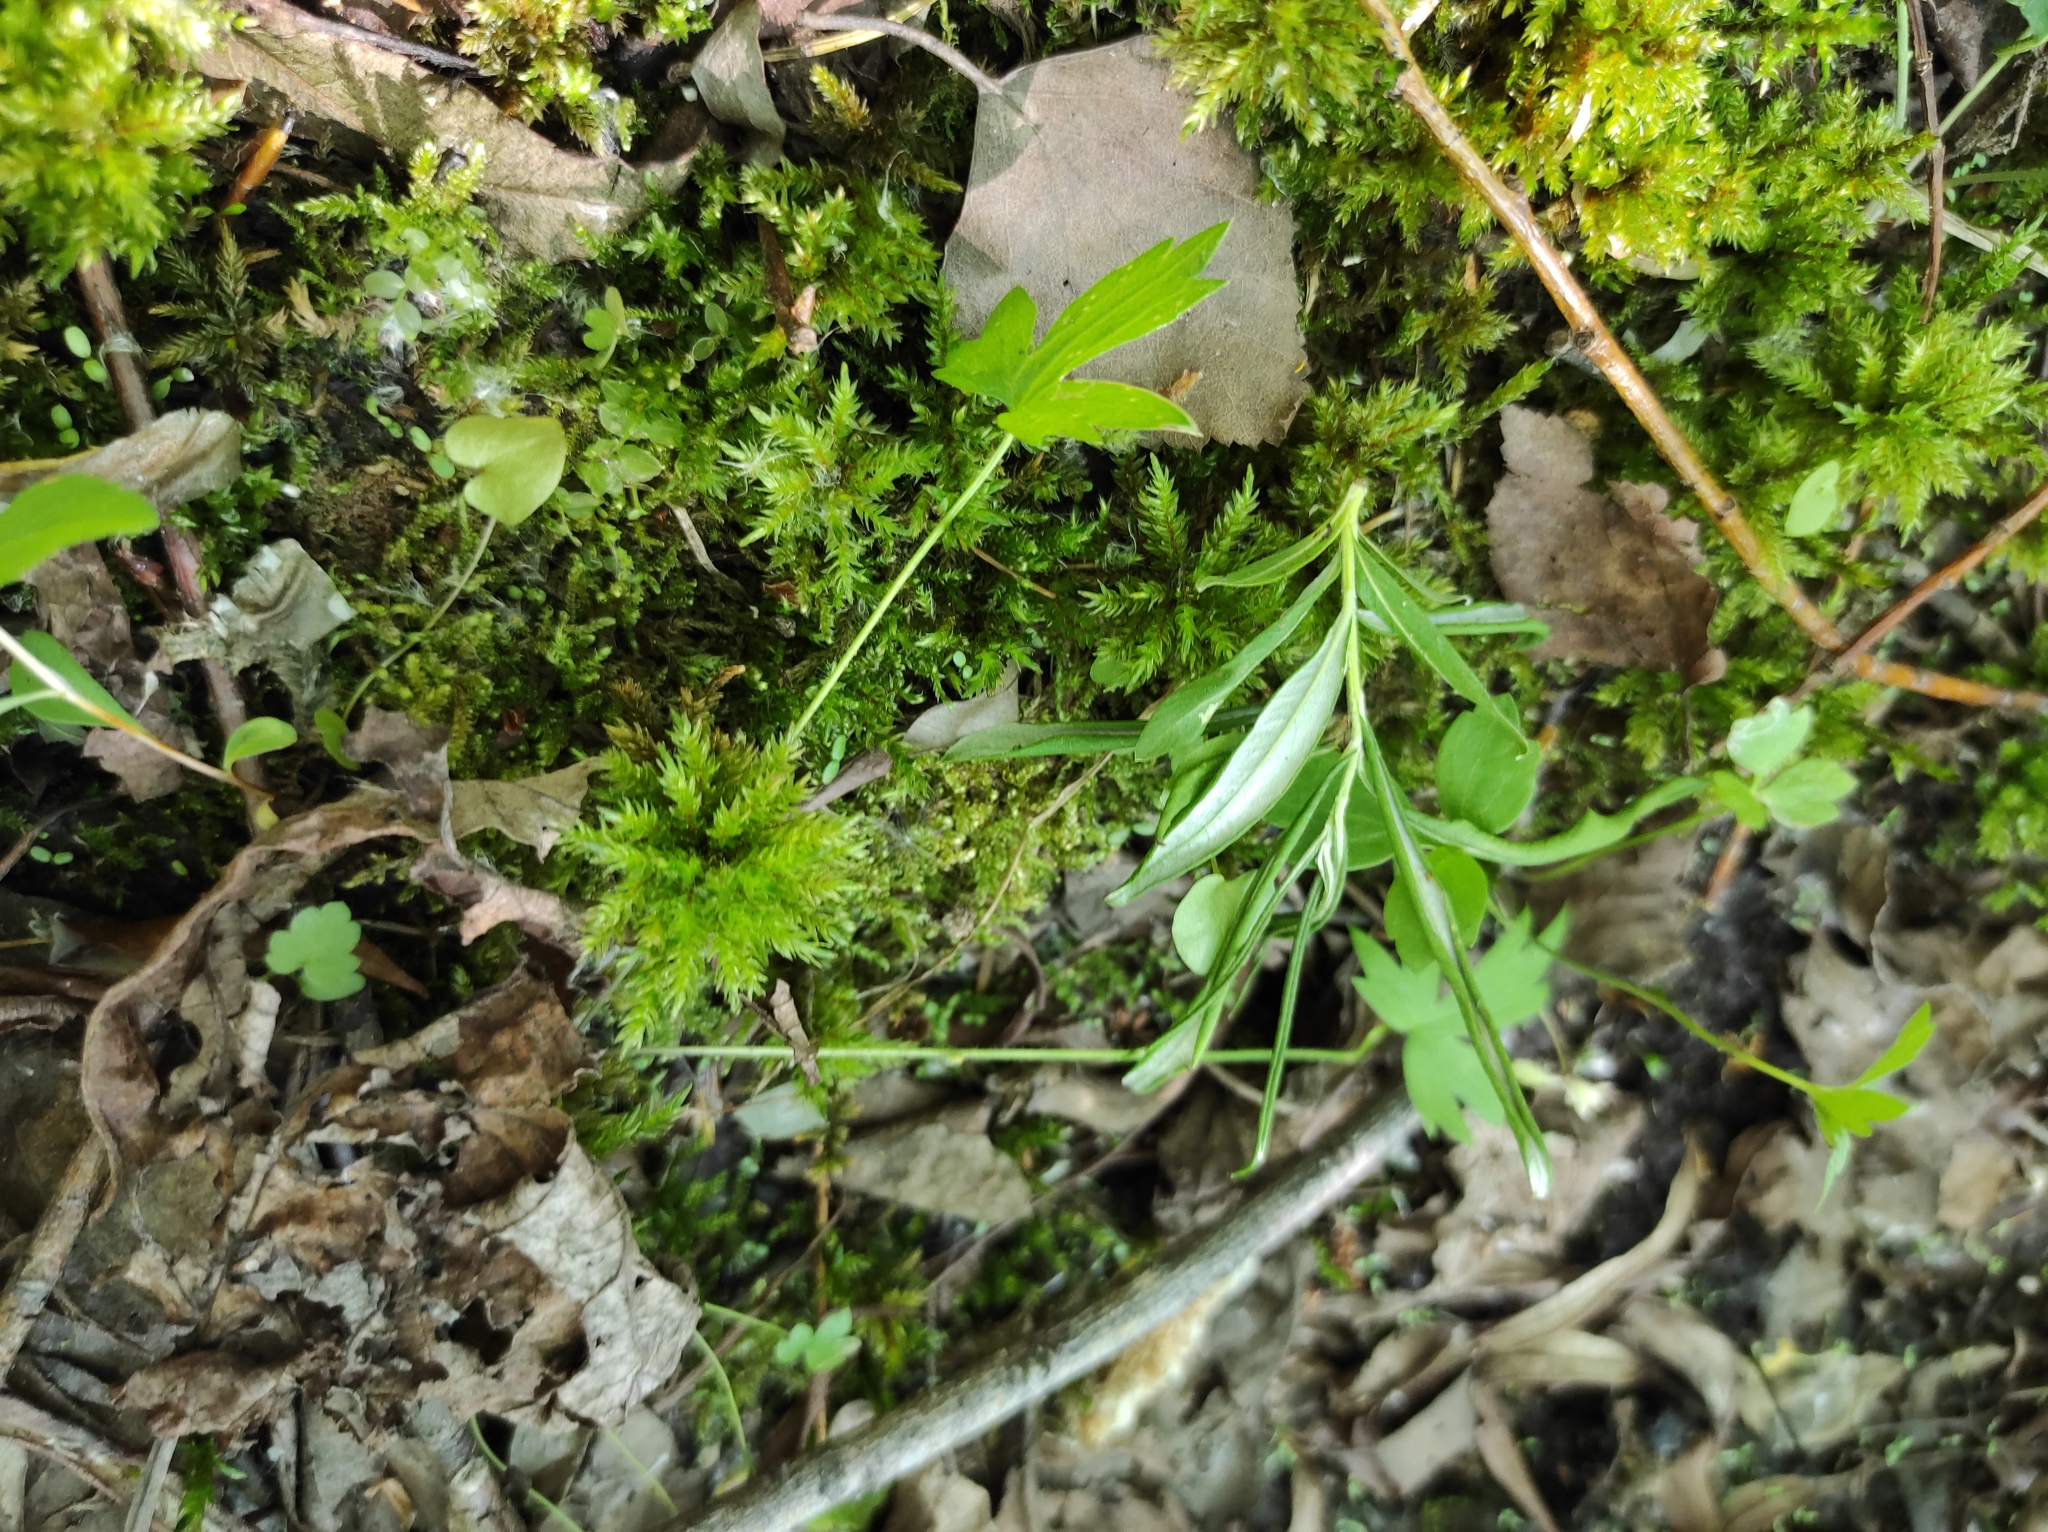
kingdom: Plantae
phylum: Bryophyta
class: Bryopsida
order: Hypnales
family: Climaciaceae
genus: Climacium
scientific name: Climacium dendroides
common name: Northern tree moss
